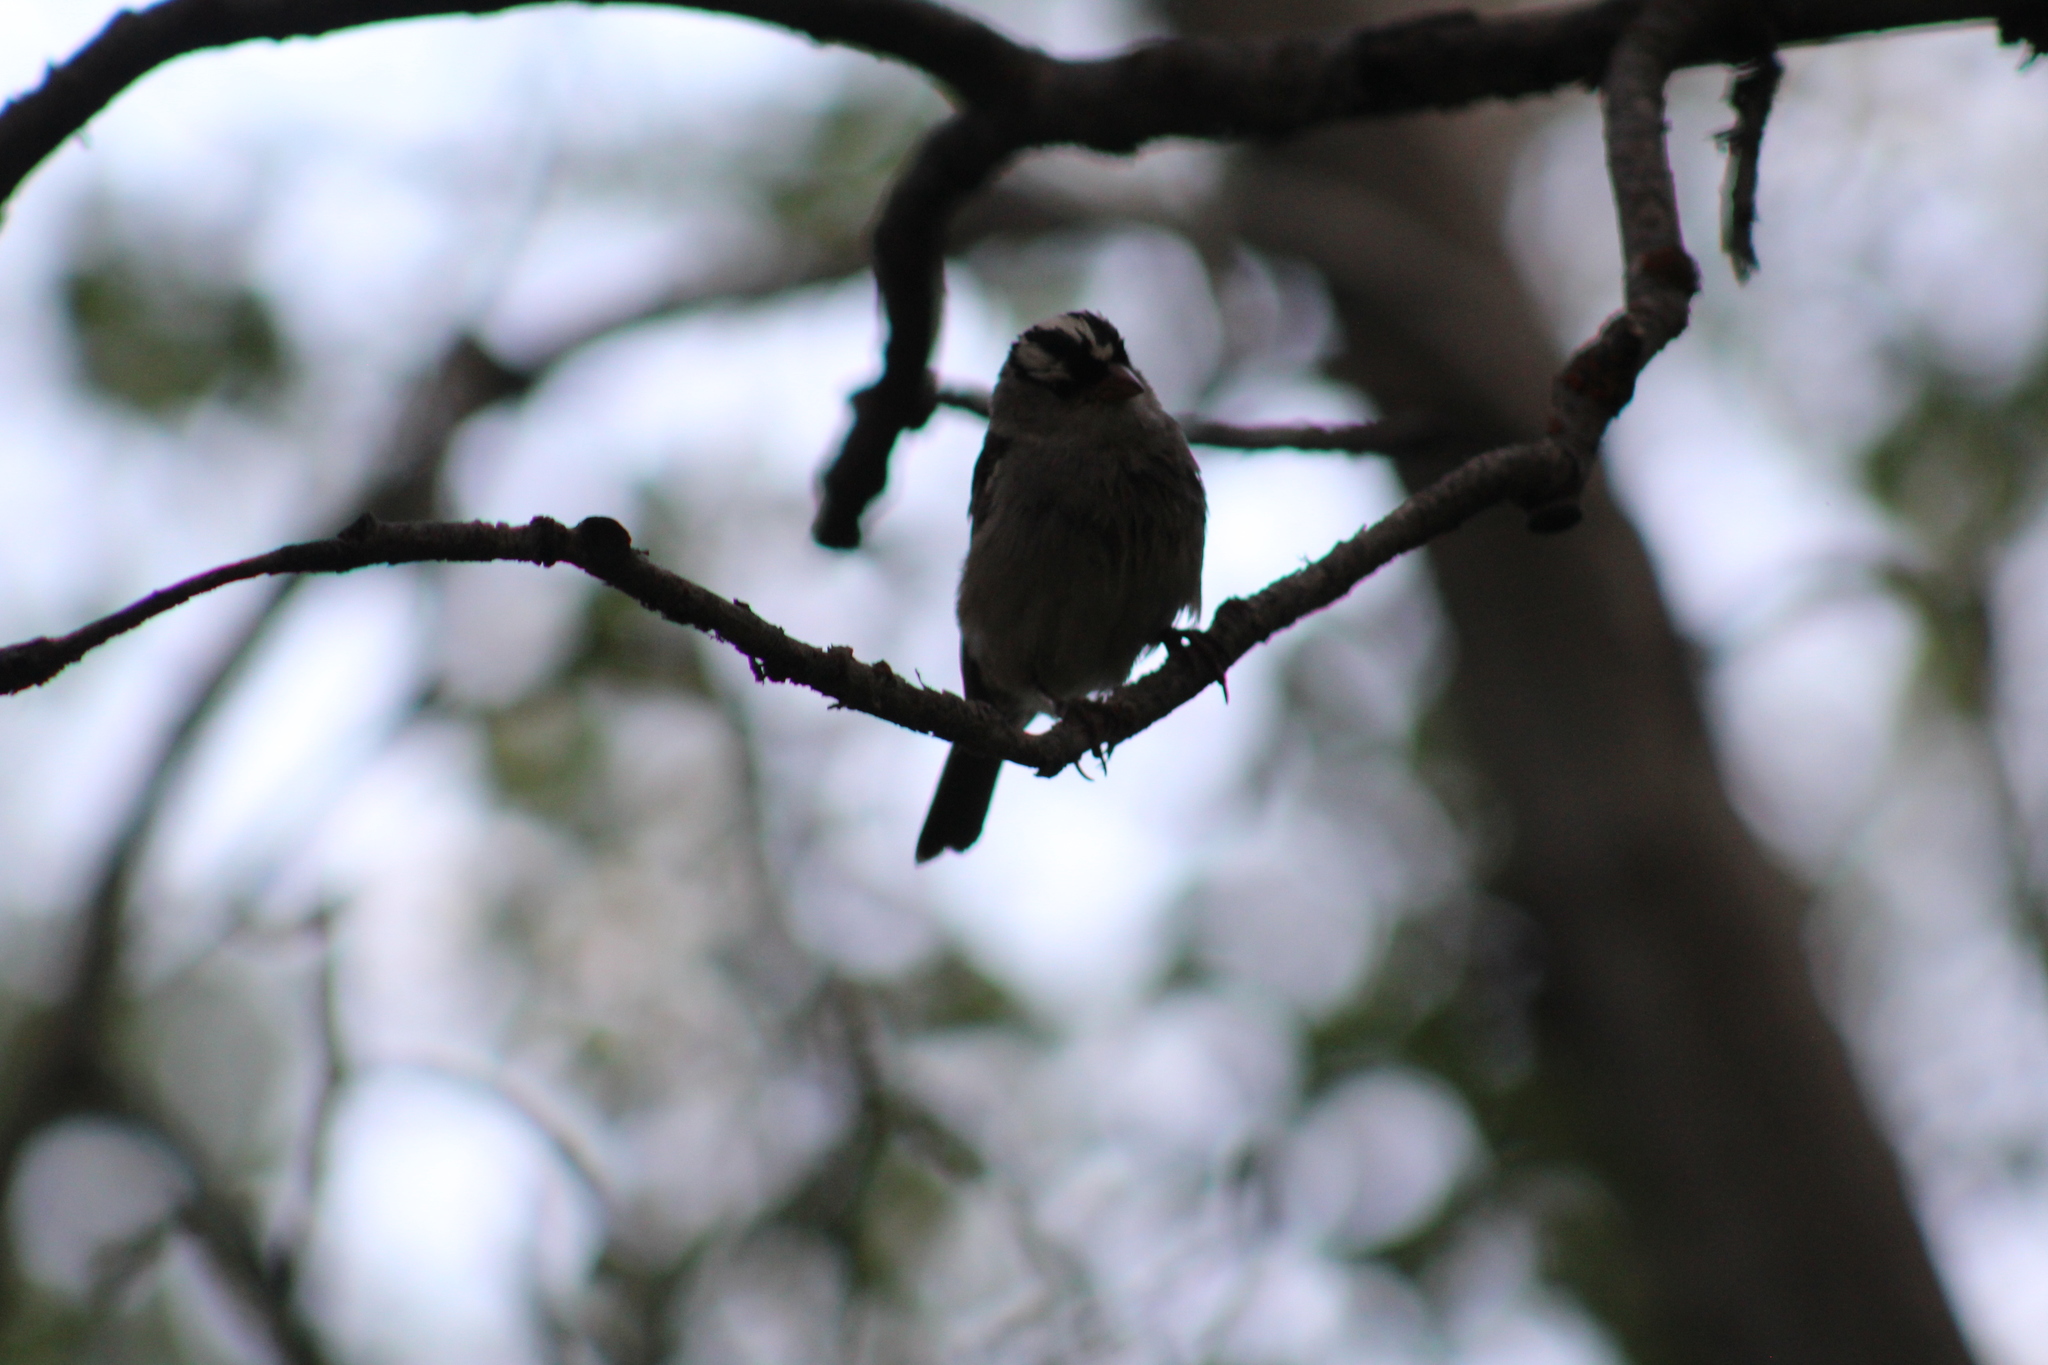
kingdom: Animalia
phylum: Chordata
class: Aves
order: Passeriformes
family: Passerellidae
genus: Zonotrichia
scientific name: Zonotrichia leucophrys
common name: White-crowned sparrow
